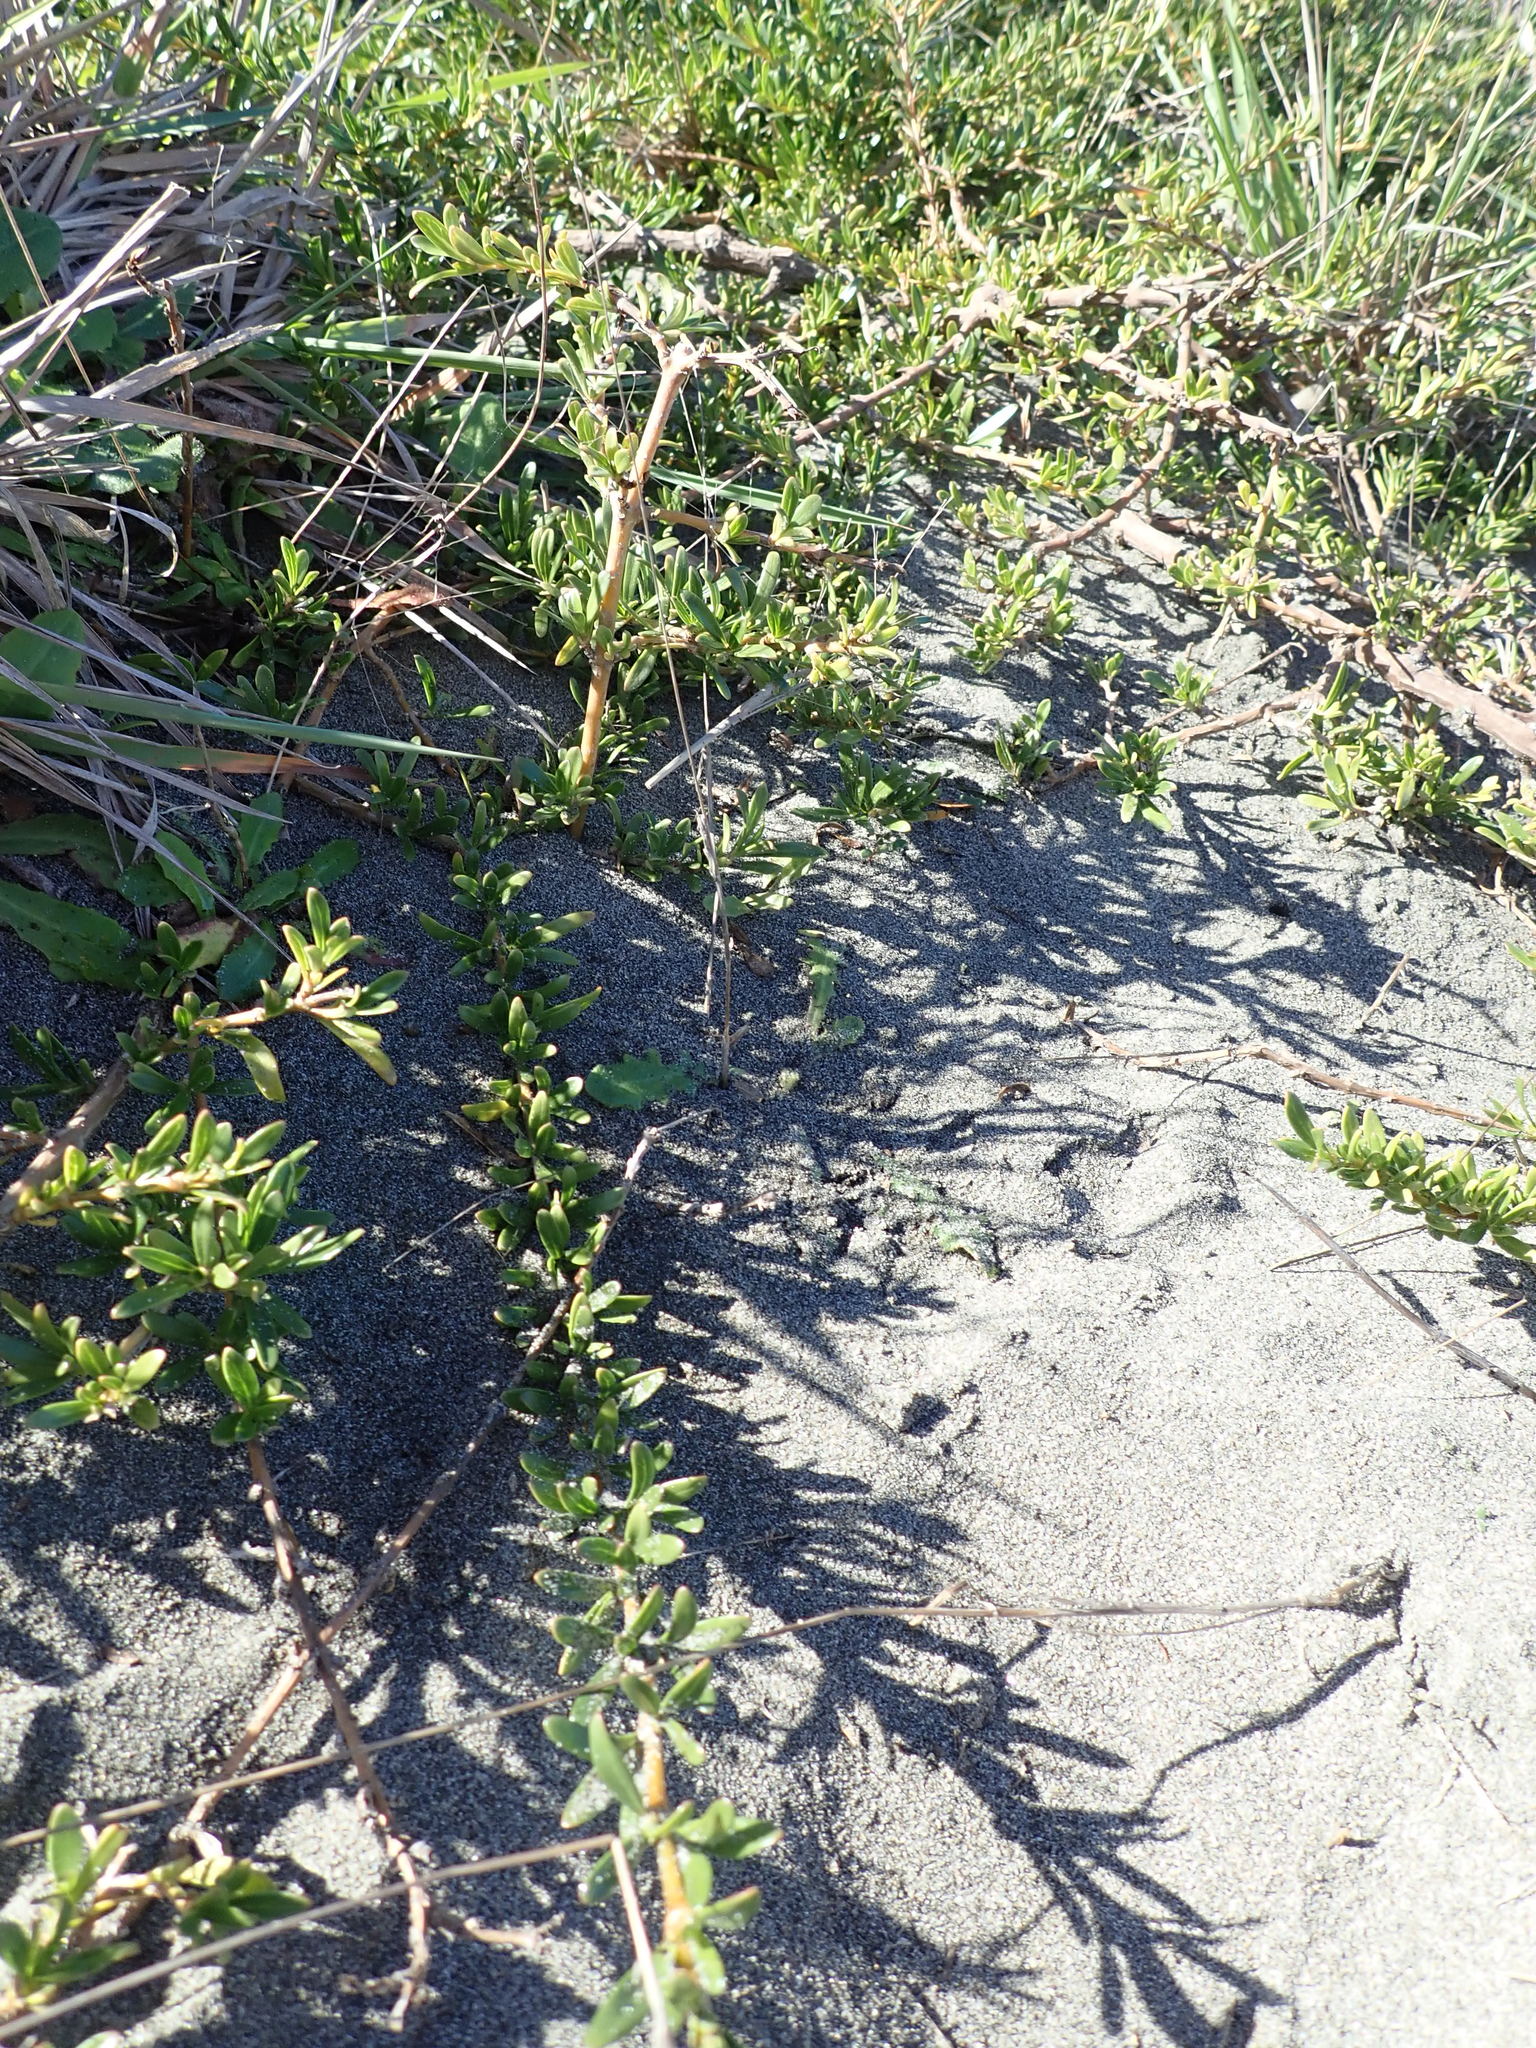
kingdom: Plantae
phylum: Tracheophyta
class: Magnoliopsida
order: Gentianales
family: Rubiaceae
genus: Coprosma
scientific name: Coprosma kirkii
